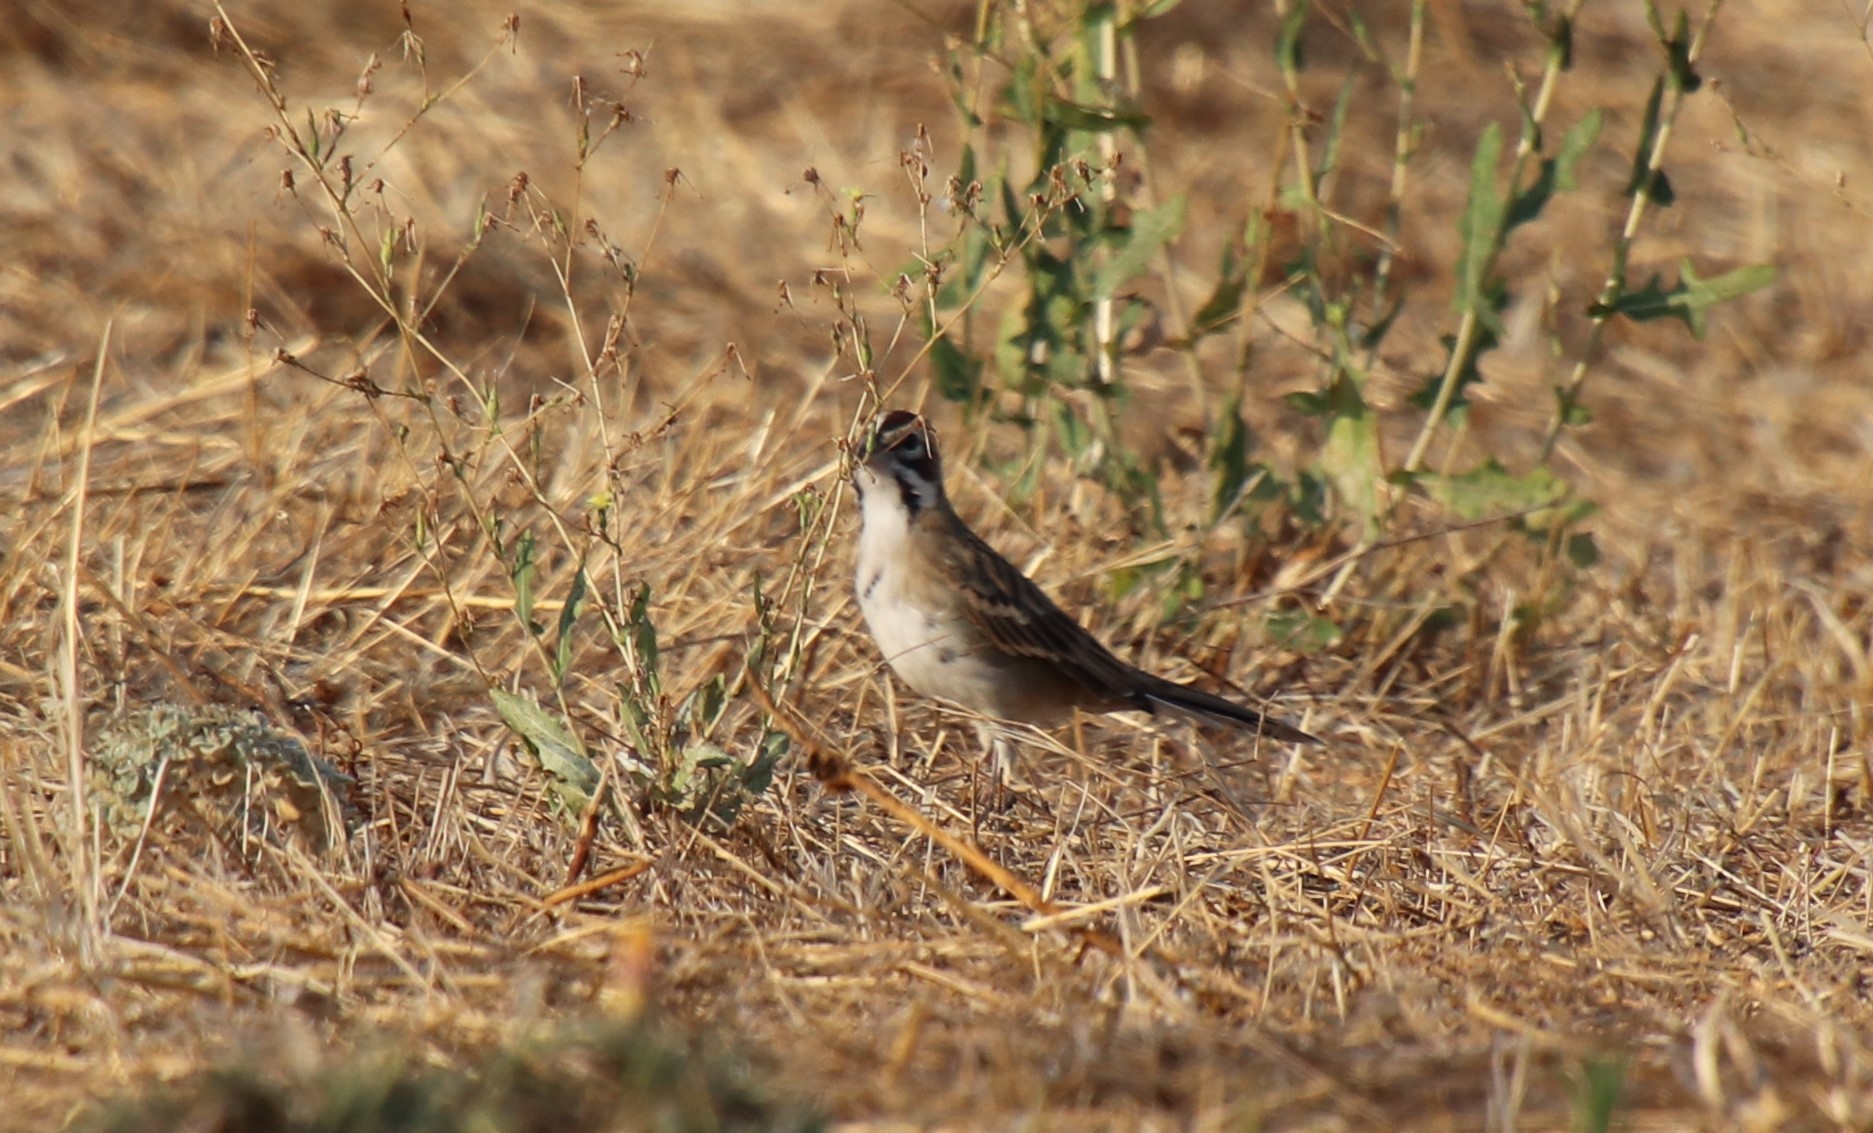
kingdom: Animalia
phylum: Chordata
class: Aves
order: Passeriformes
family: Passerellidae
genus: Chondestes
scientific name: Chondestes grammacus
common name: Lark sparrow
